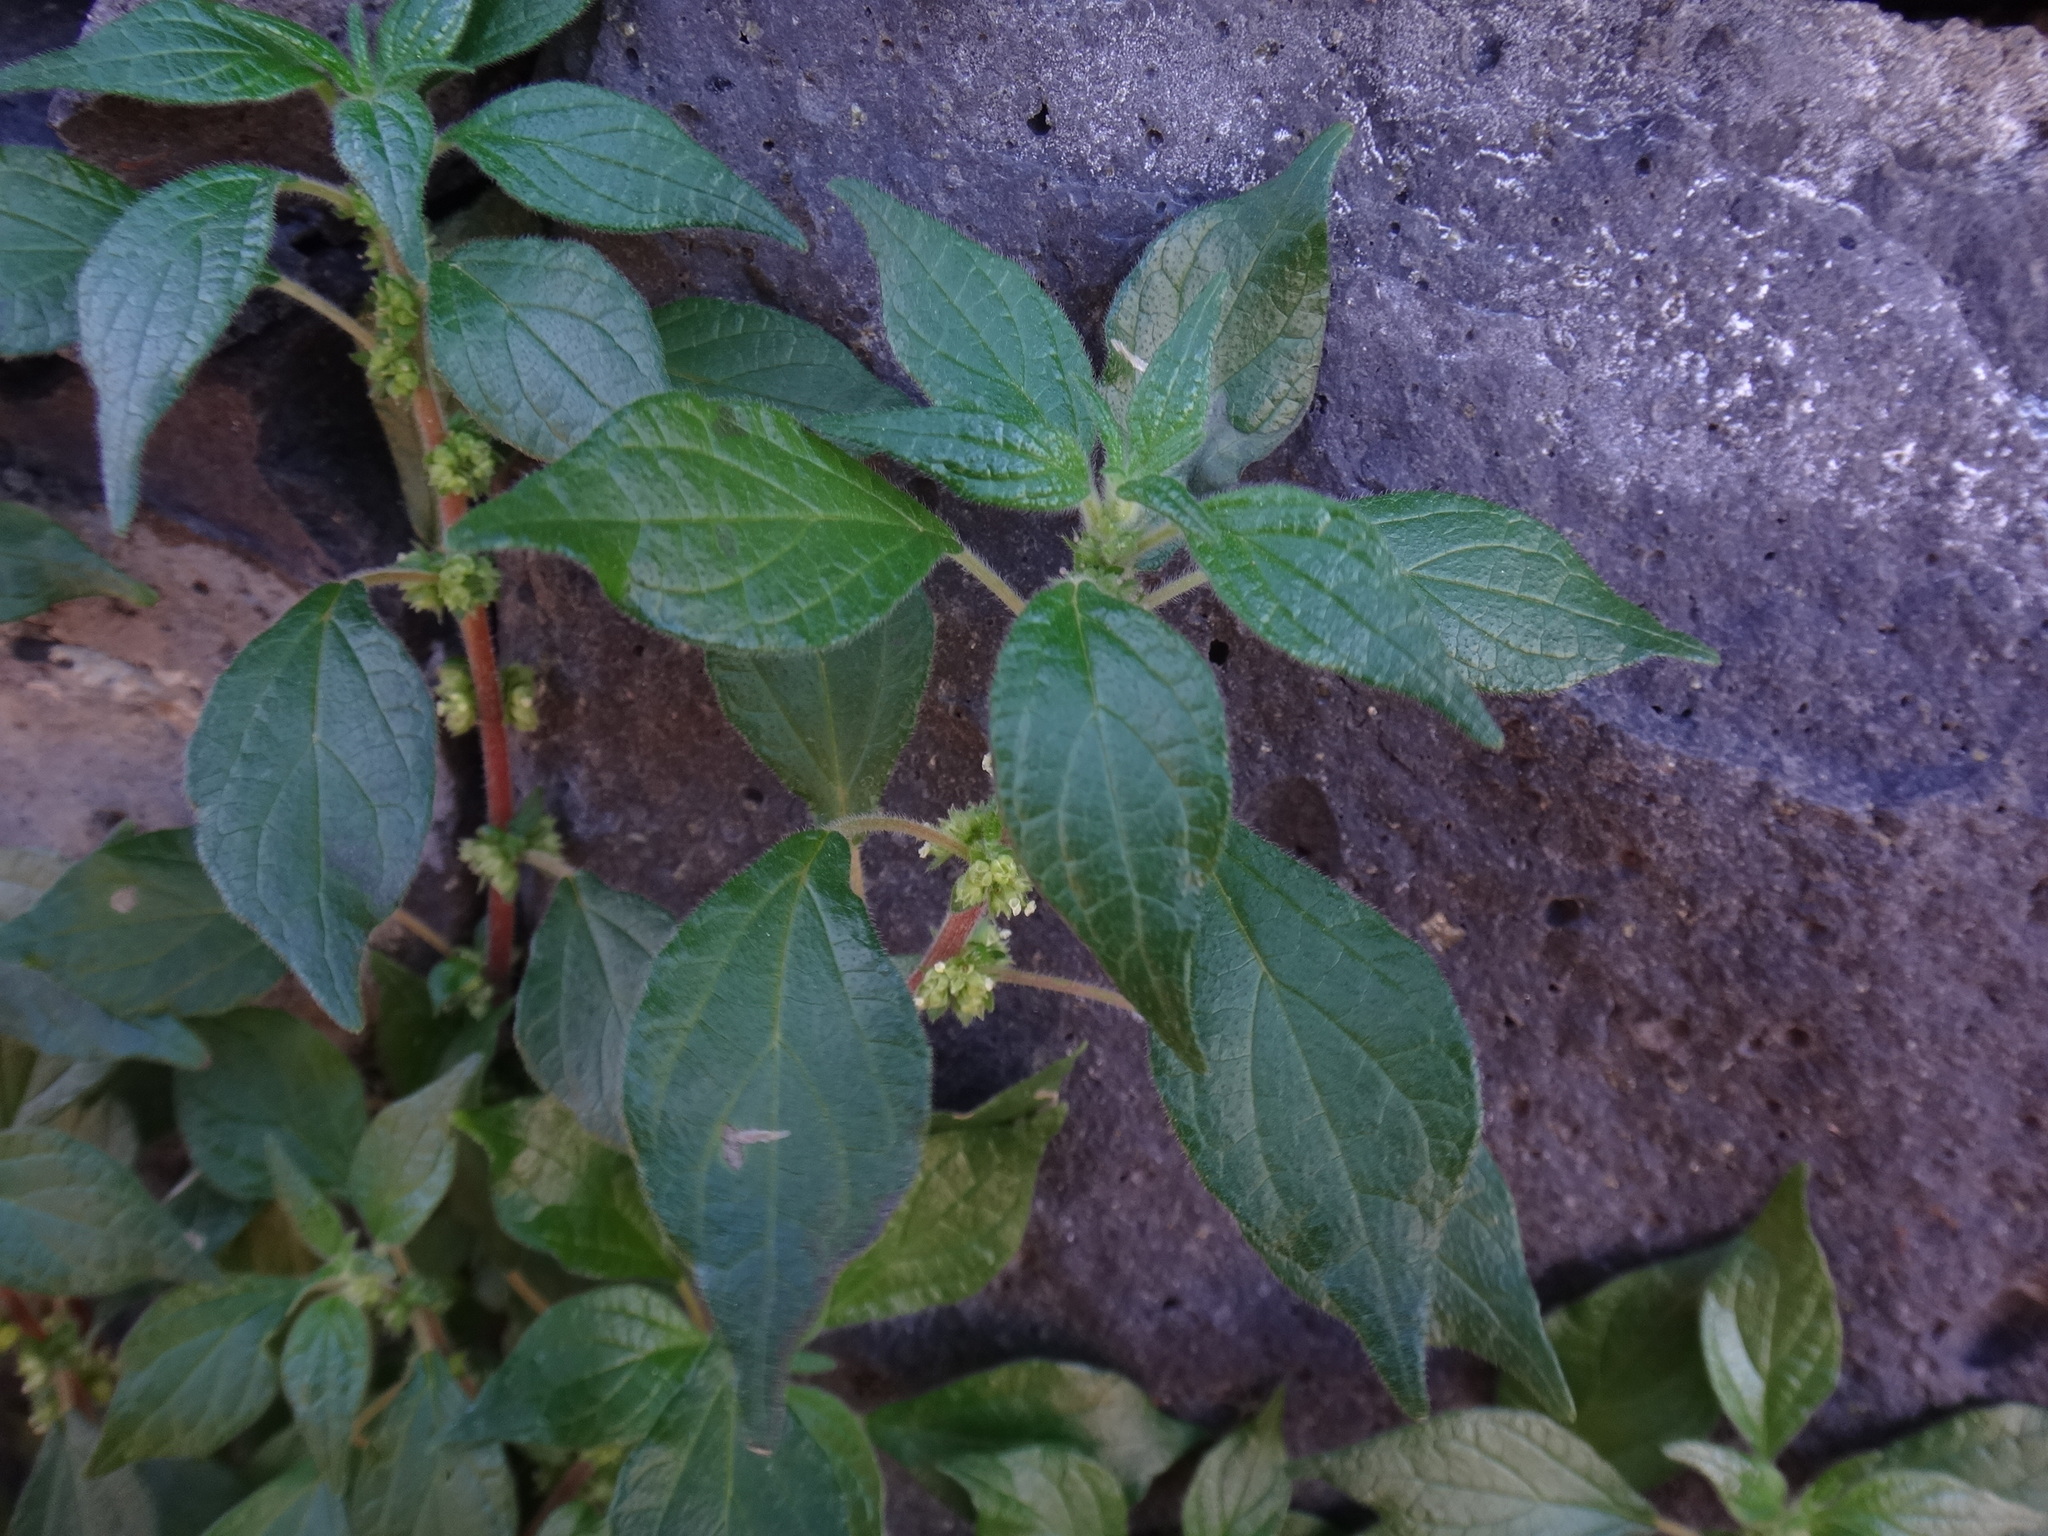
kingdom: Plantae
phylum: Tracheophyta
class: Magnoliopsida
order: Rosales
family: Urticaceae
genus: Parietaria
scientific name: Parietaria judaica
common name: Pellitory-of-the-wall
